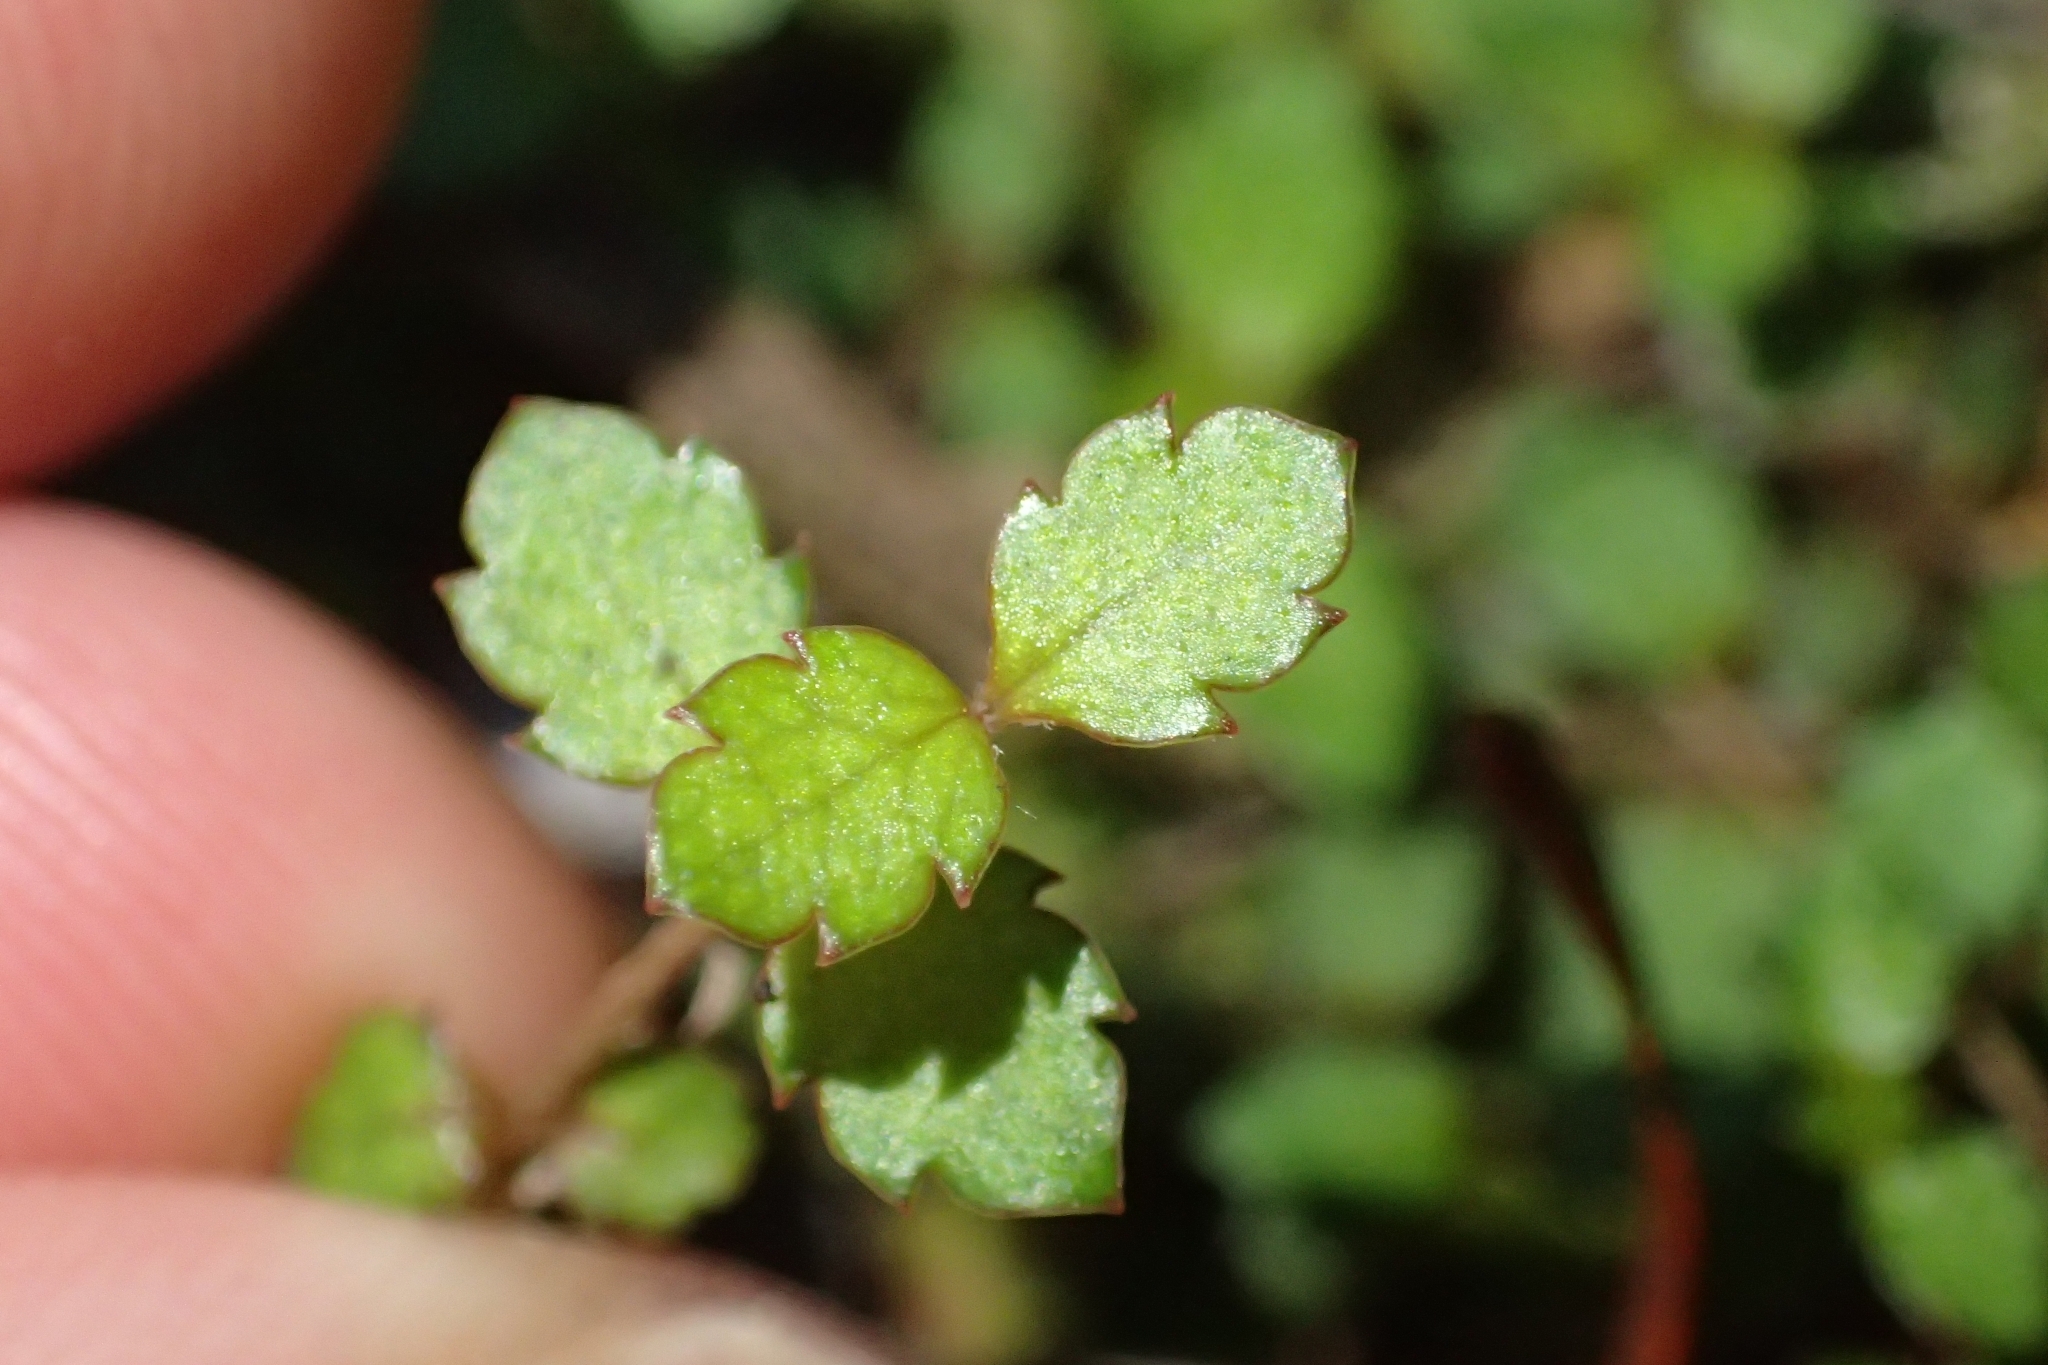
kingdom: Plantae
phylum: Tracheophyta
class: Magnoliopsida
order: Saxifragales
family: Haloragaceae
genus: Gonocarpus
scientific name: Gonocarpus aggregatus
